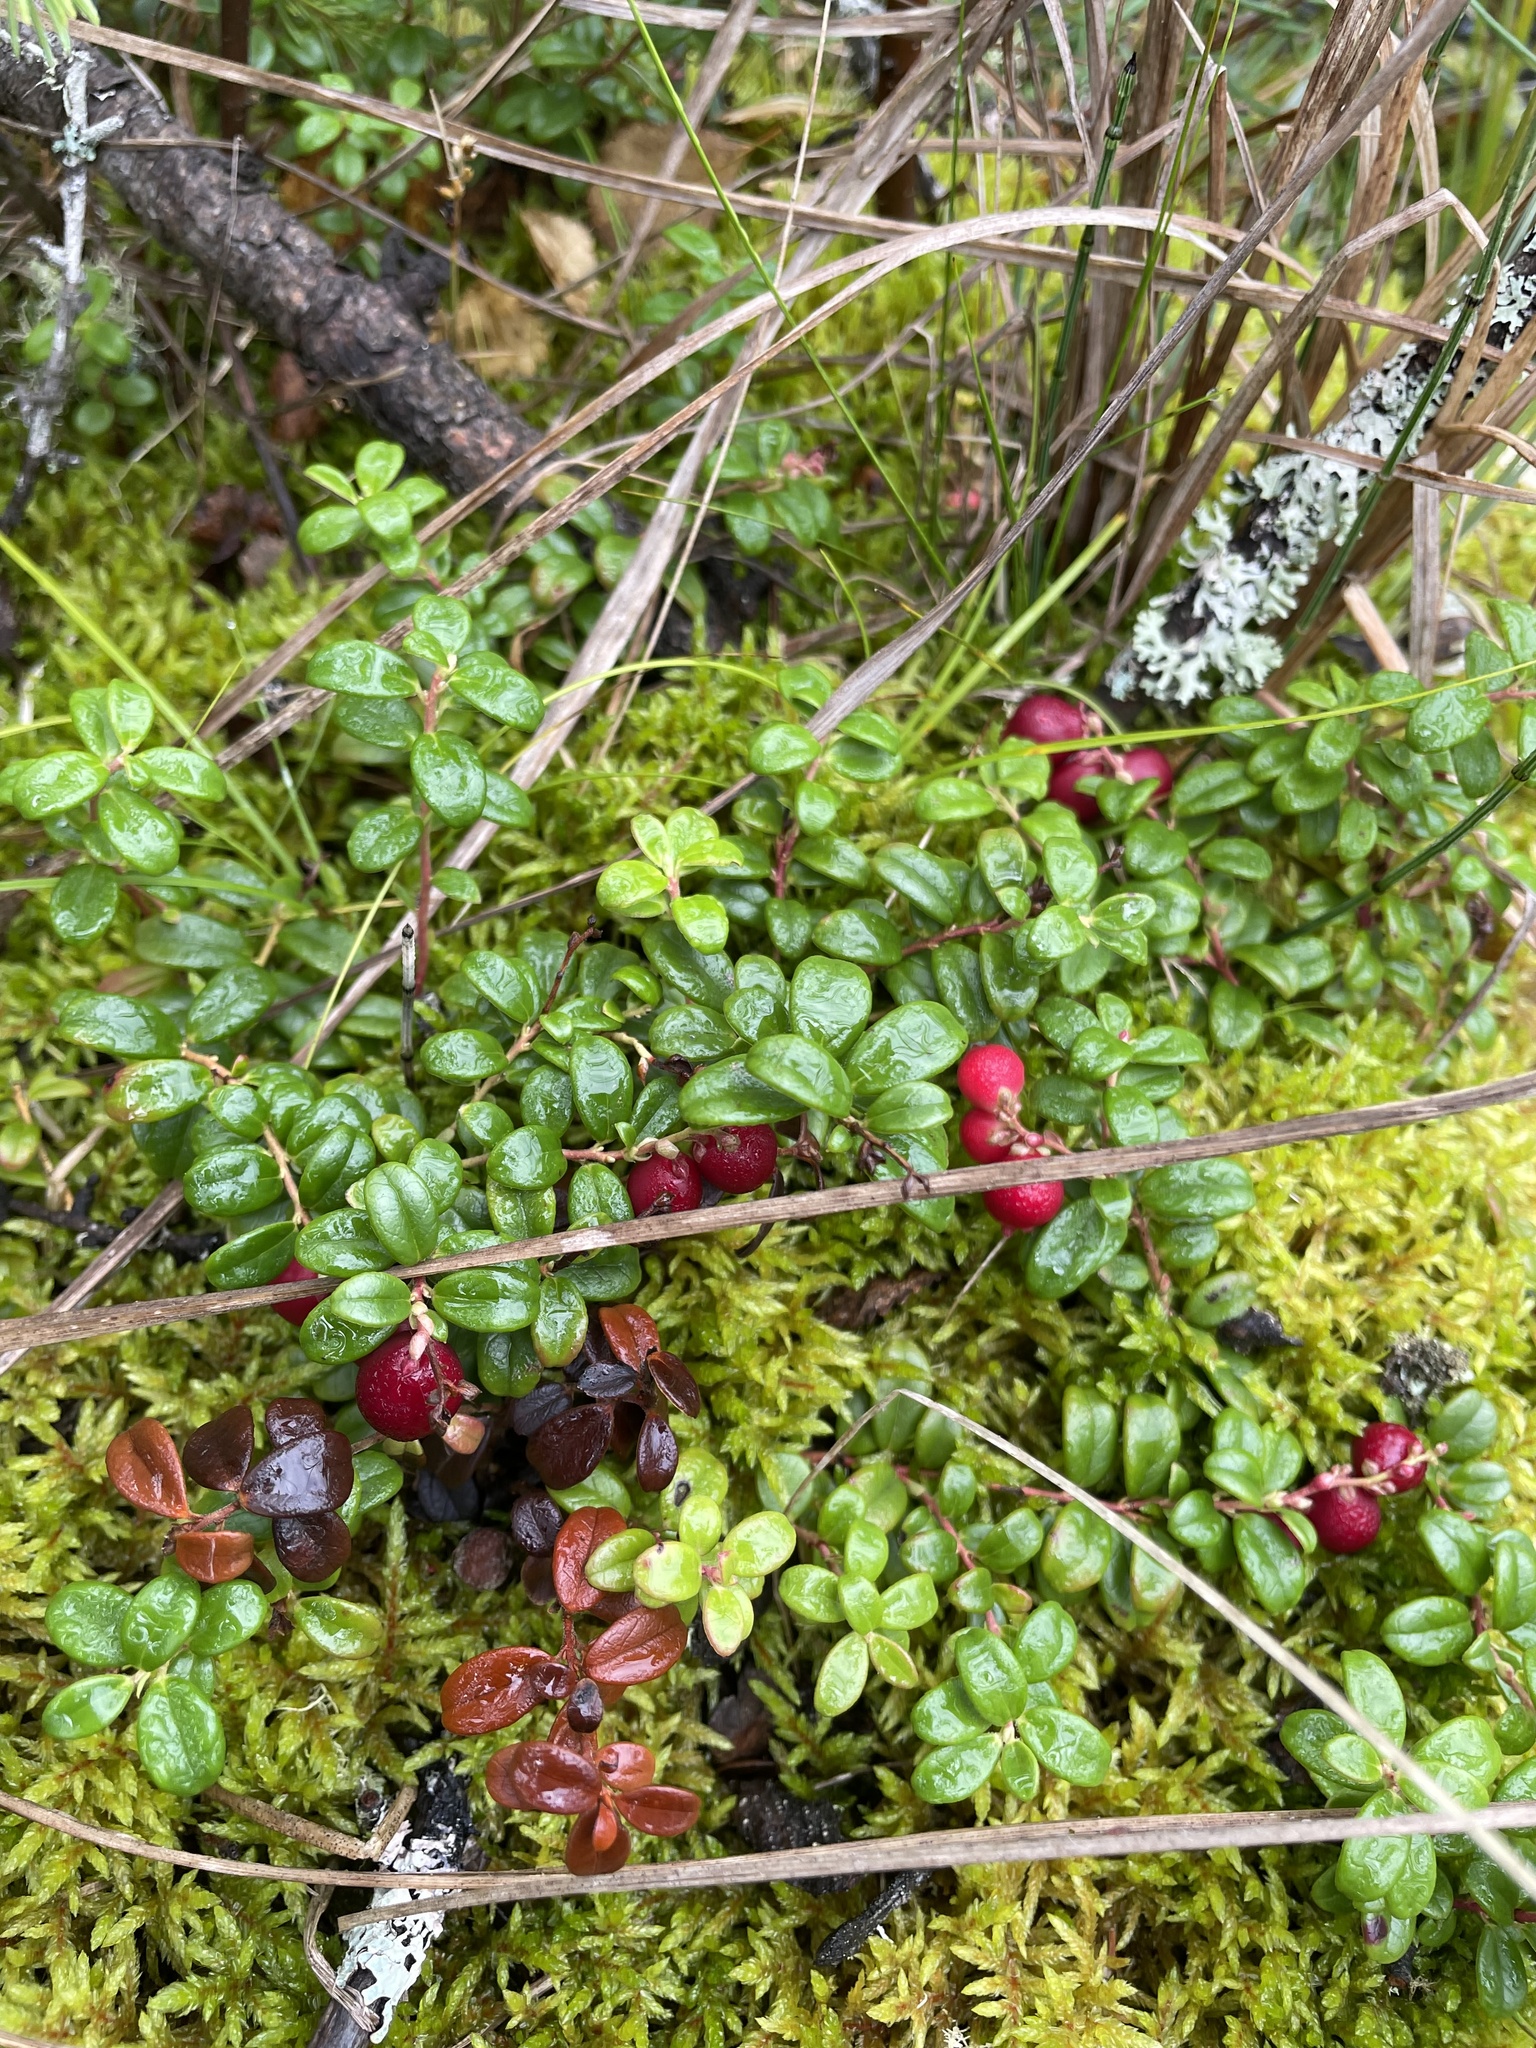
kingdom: Plantae
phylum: Tracheophyta
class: Magnoliopsida
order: Ericales
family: Ericaceae
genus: Vaccinium
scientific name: Vaccinium vitis-idaea
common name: Cowberry
